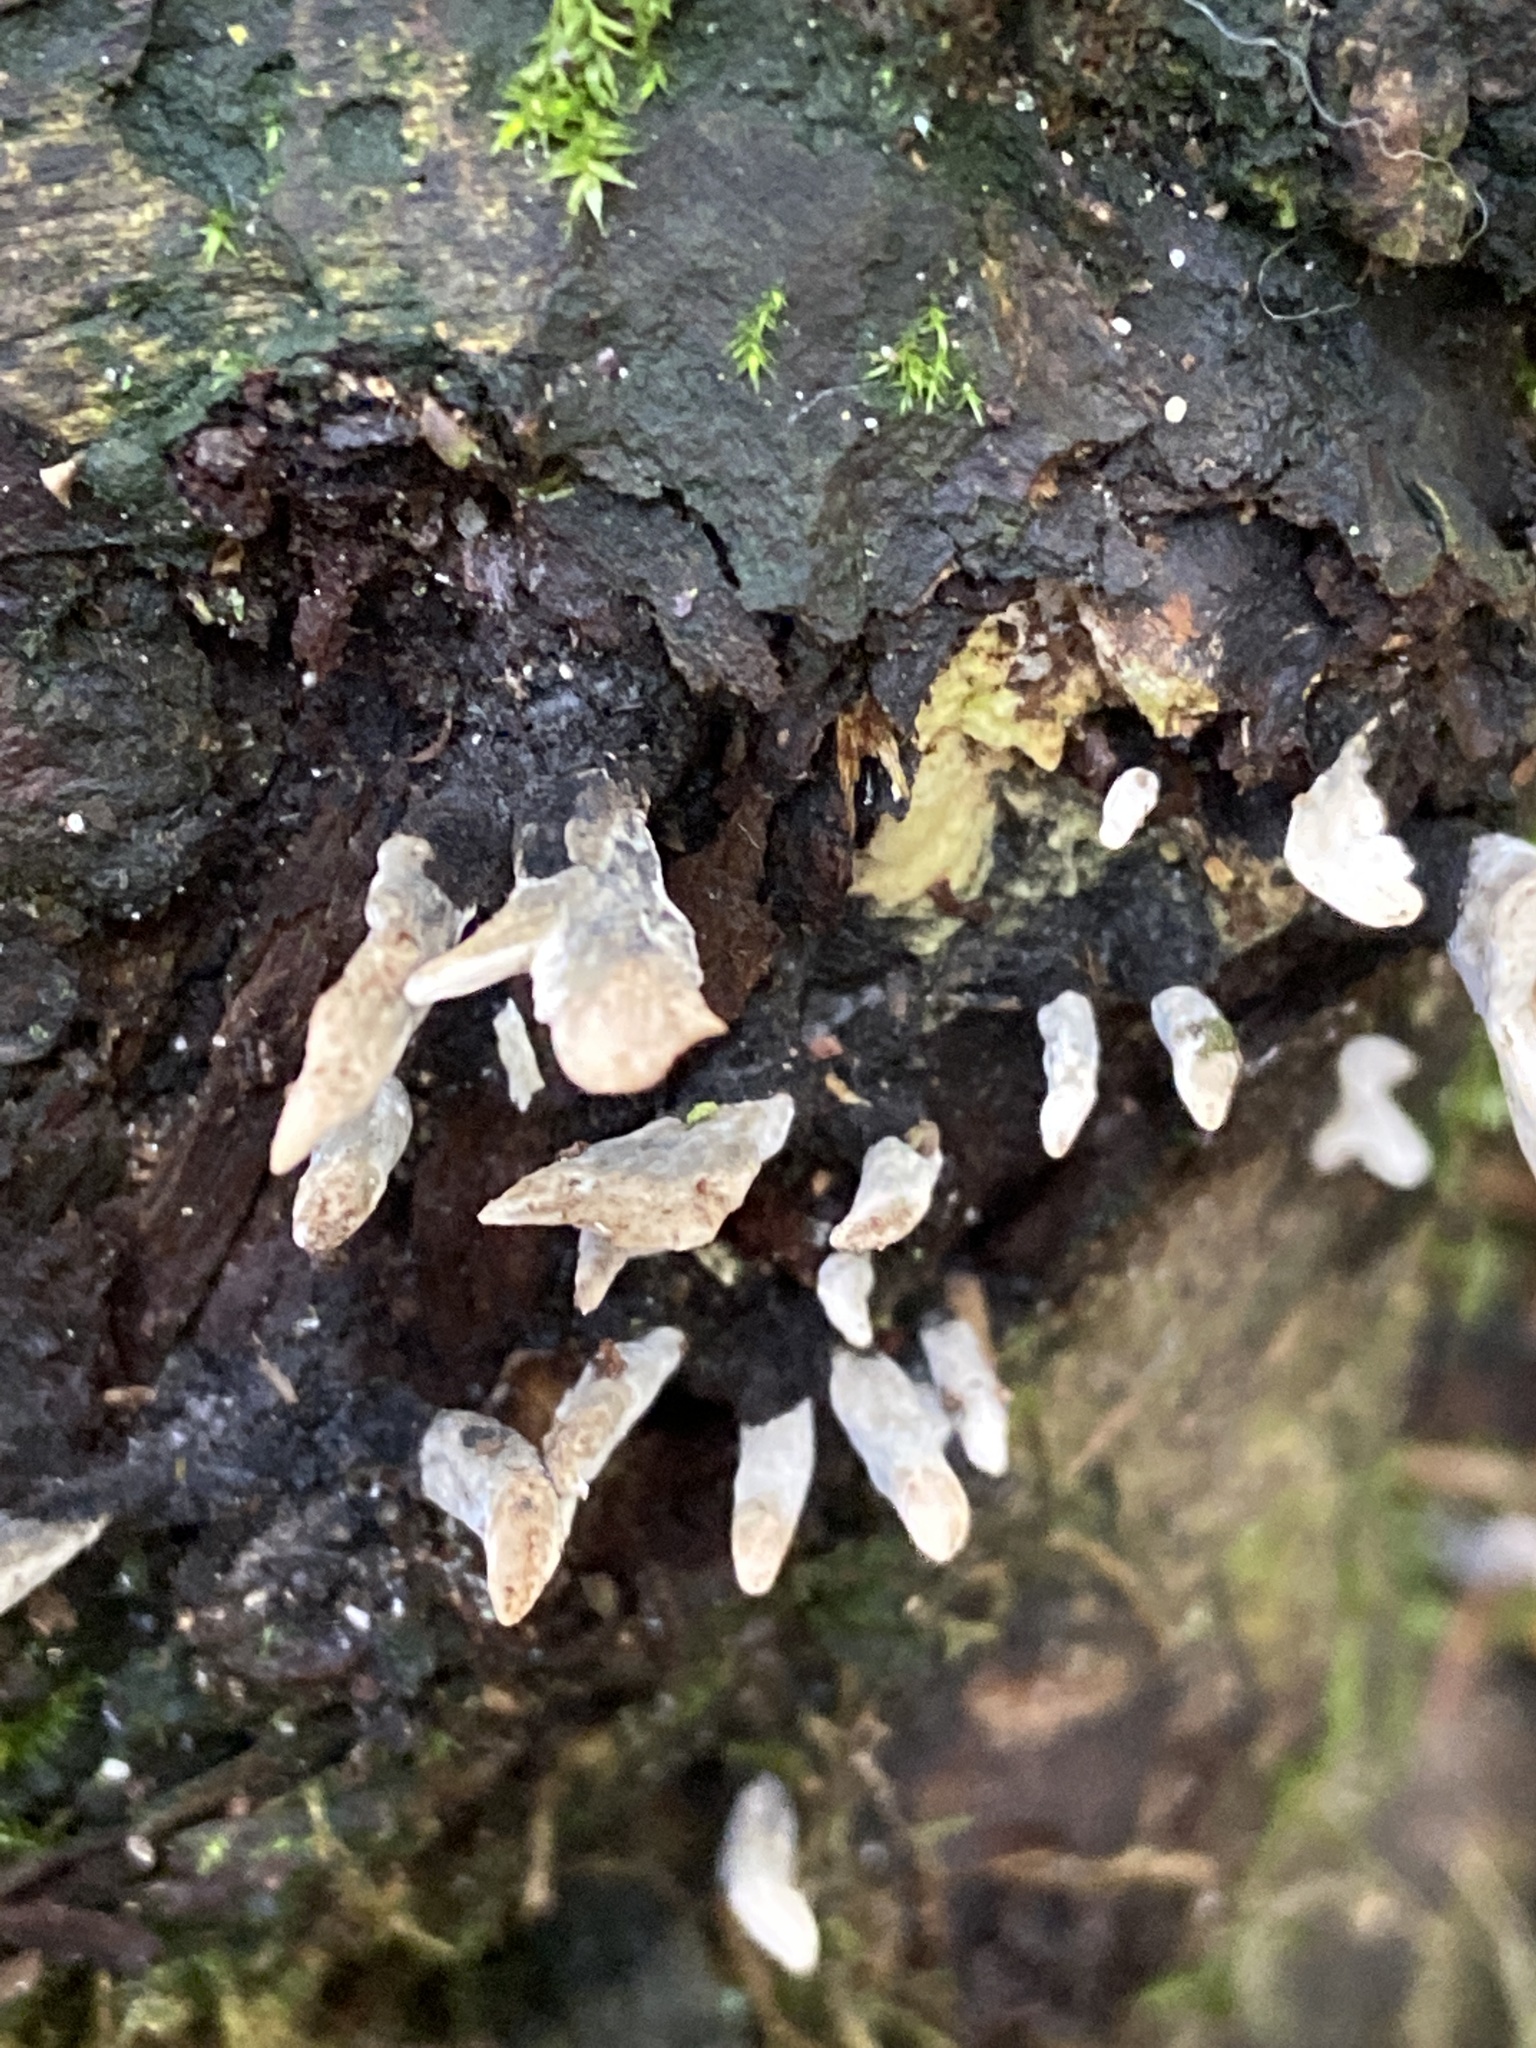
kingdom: Fungi
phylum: Ascomycota
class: Sordariomycetes
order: Xylariales
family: Xylariaceae
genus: Xylaria
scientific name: Xylaria hypoxylon
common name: Candle-snuff fungus
